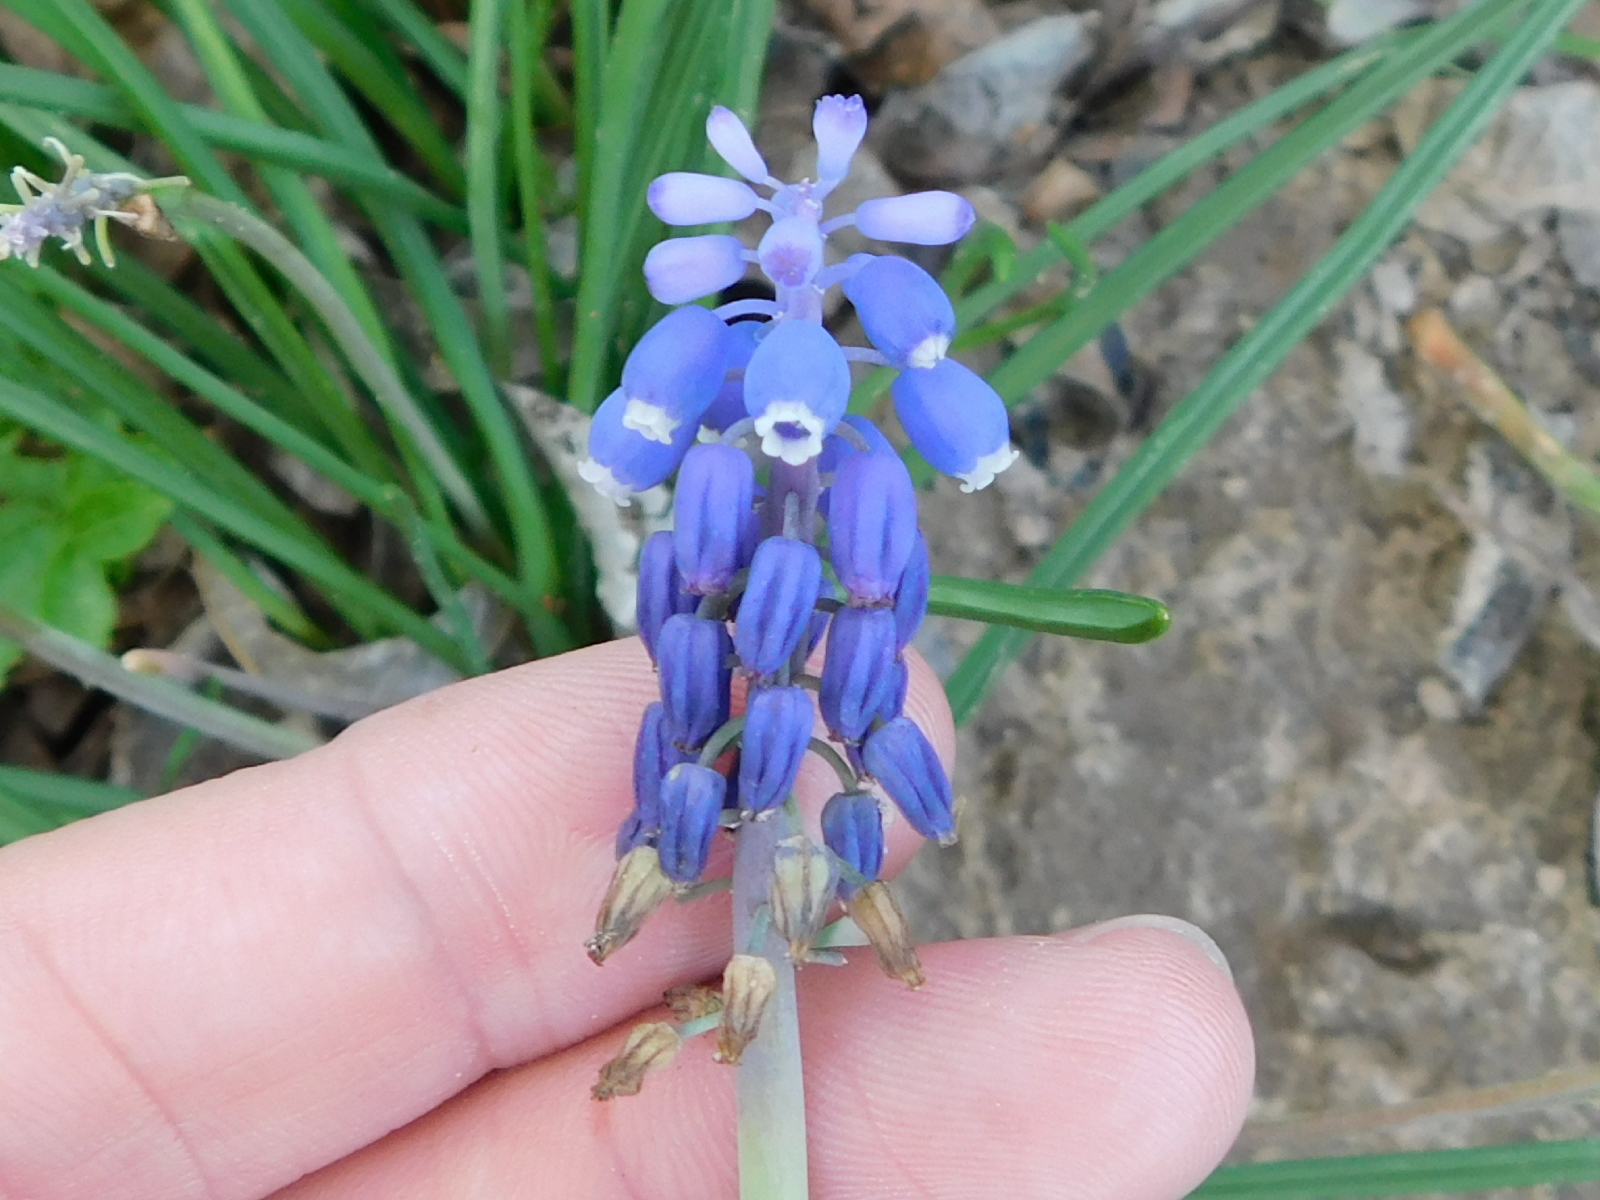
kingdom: Plantae
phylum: Tracheophyta
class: Liliopsida
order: Asparagales
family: Asparagaceae
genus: Muscari
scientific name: Muscari neglectum
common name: Grape-hyacinth
